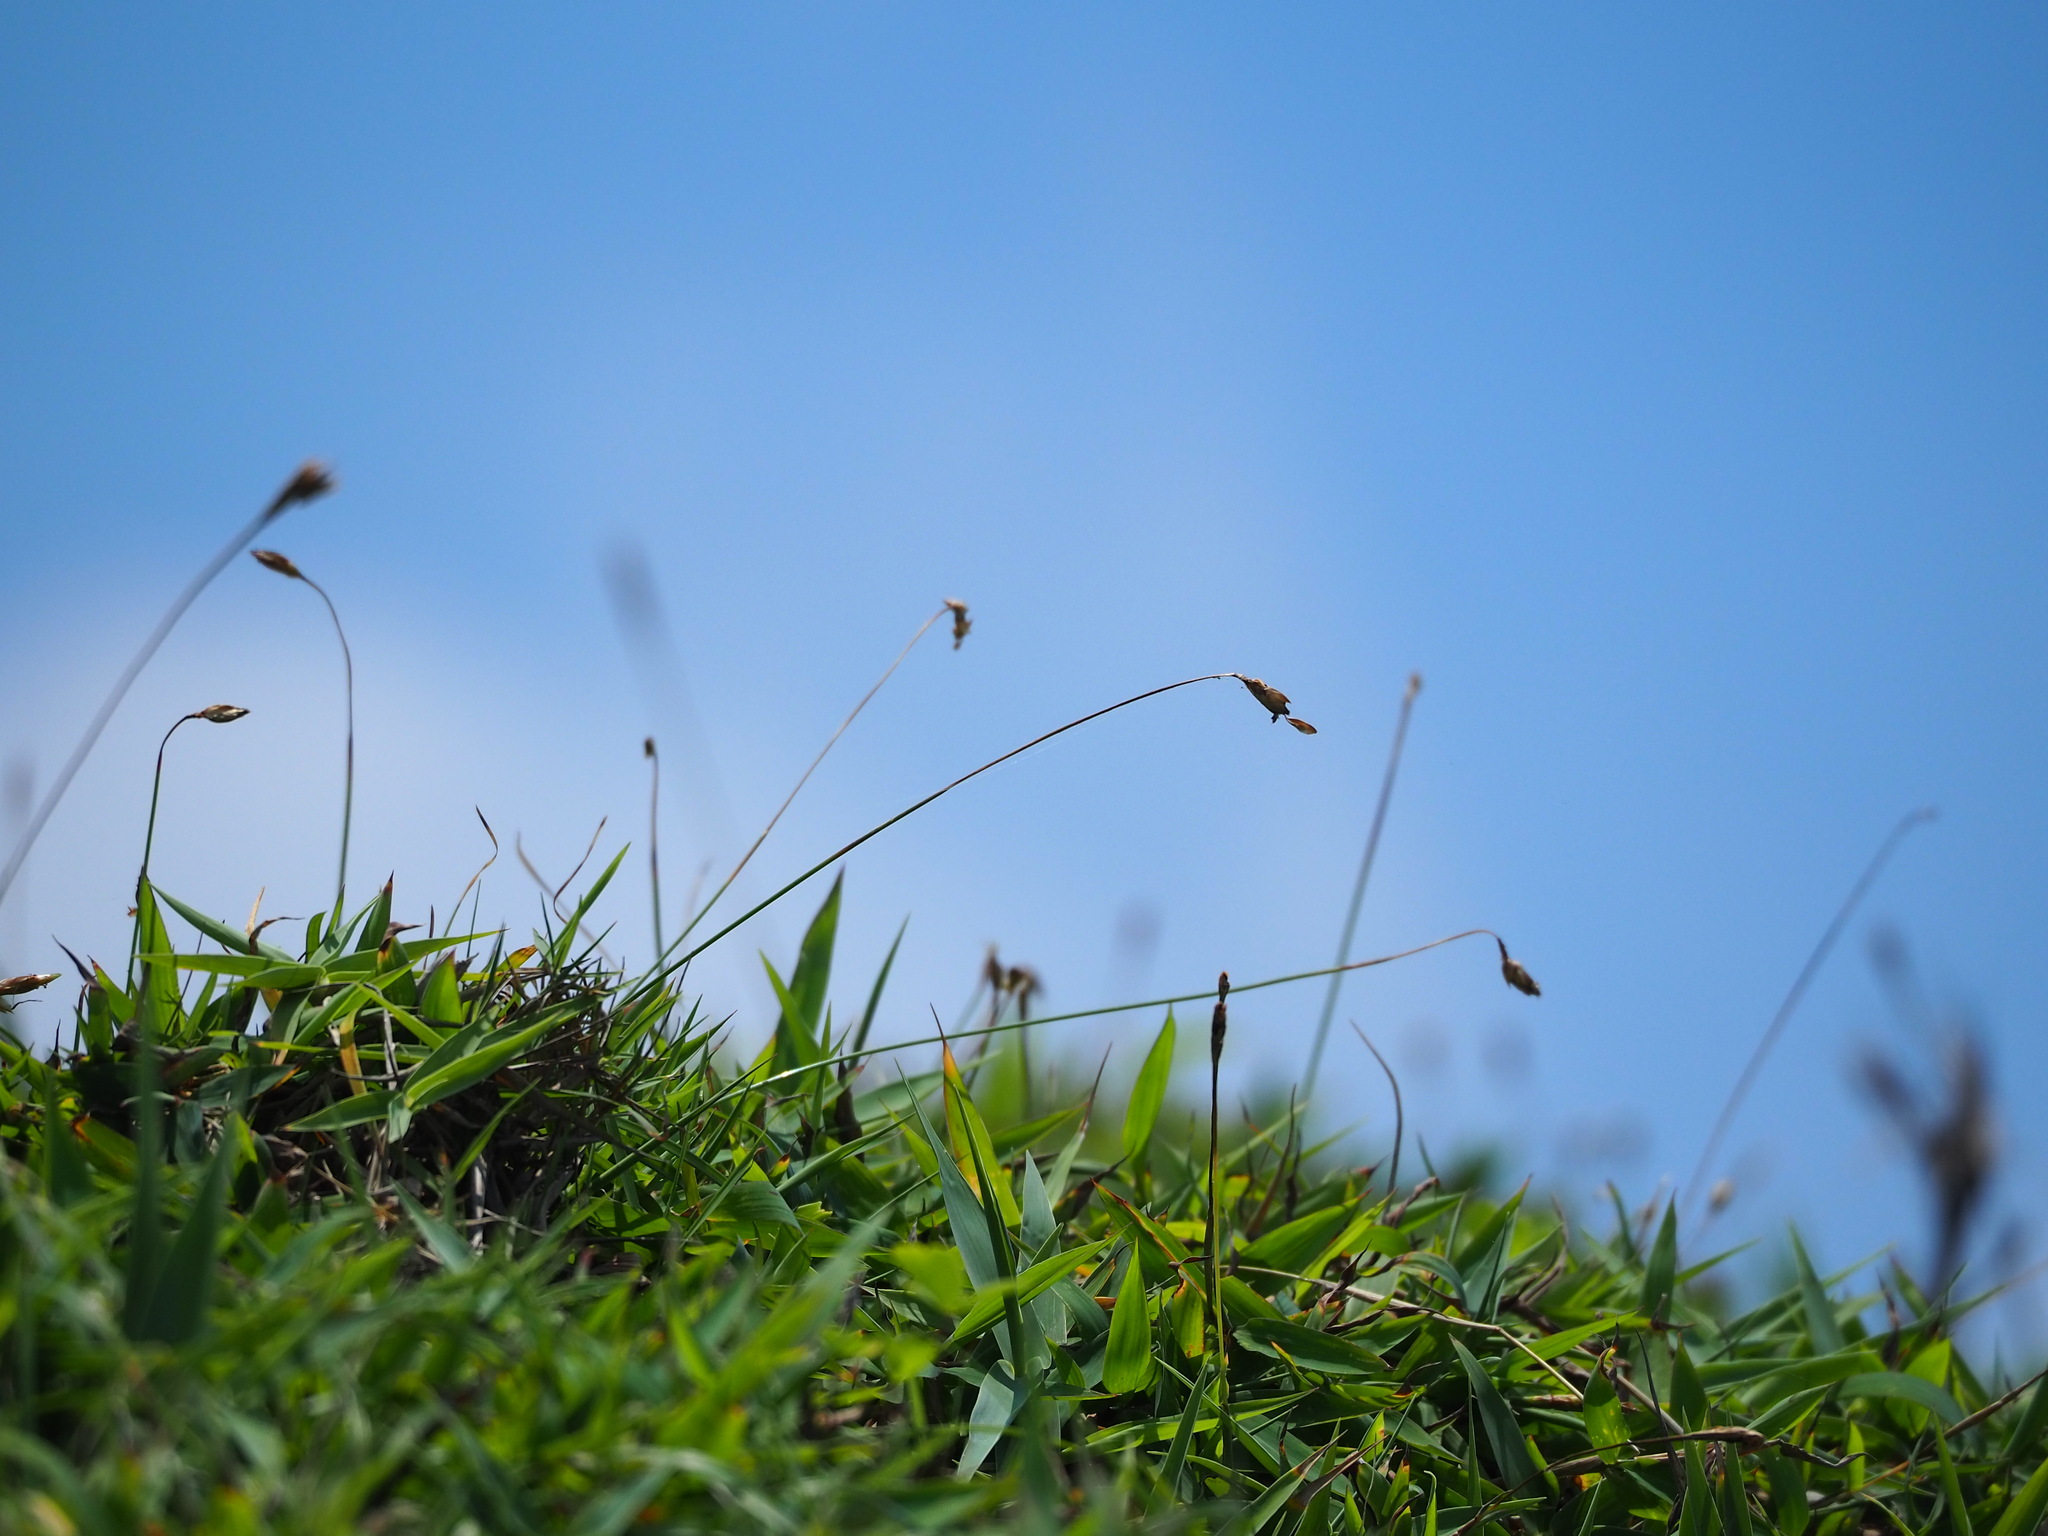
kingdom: Plantae
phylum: Tracheophyta
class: Liliopsida
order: Poales
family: Cyperaceae
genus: Abildgaardia
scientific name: Abildgaardia ovata
